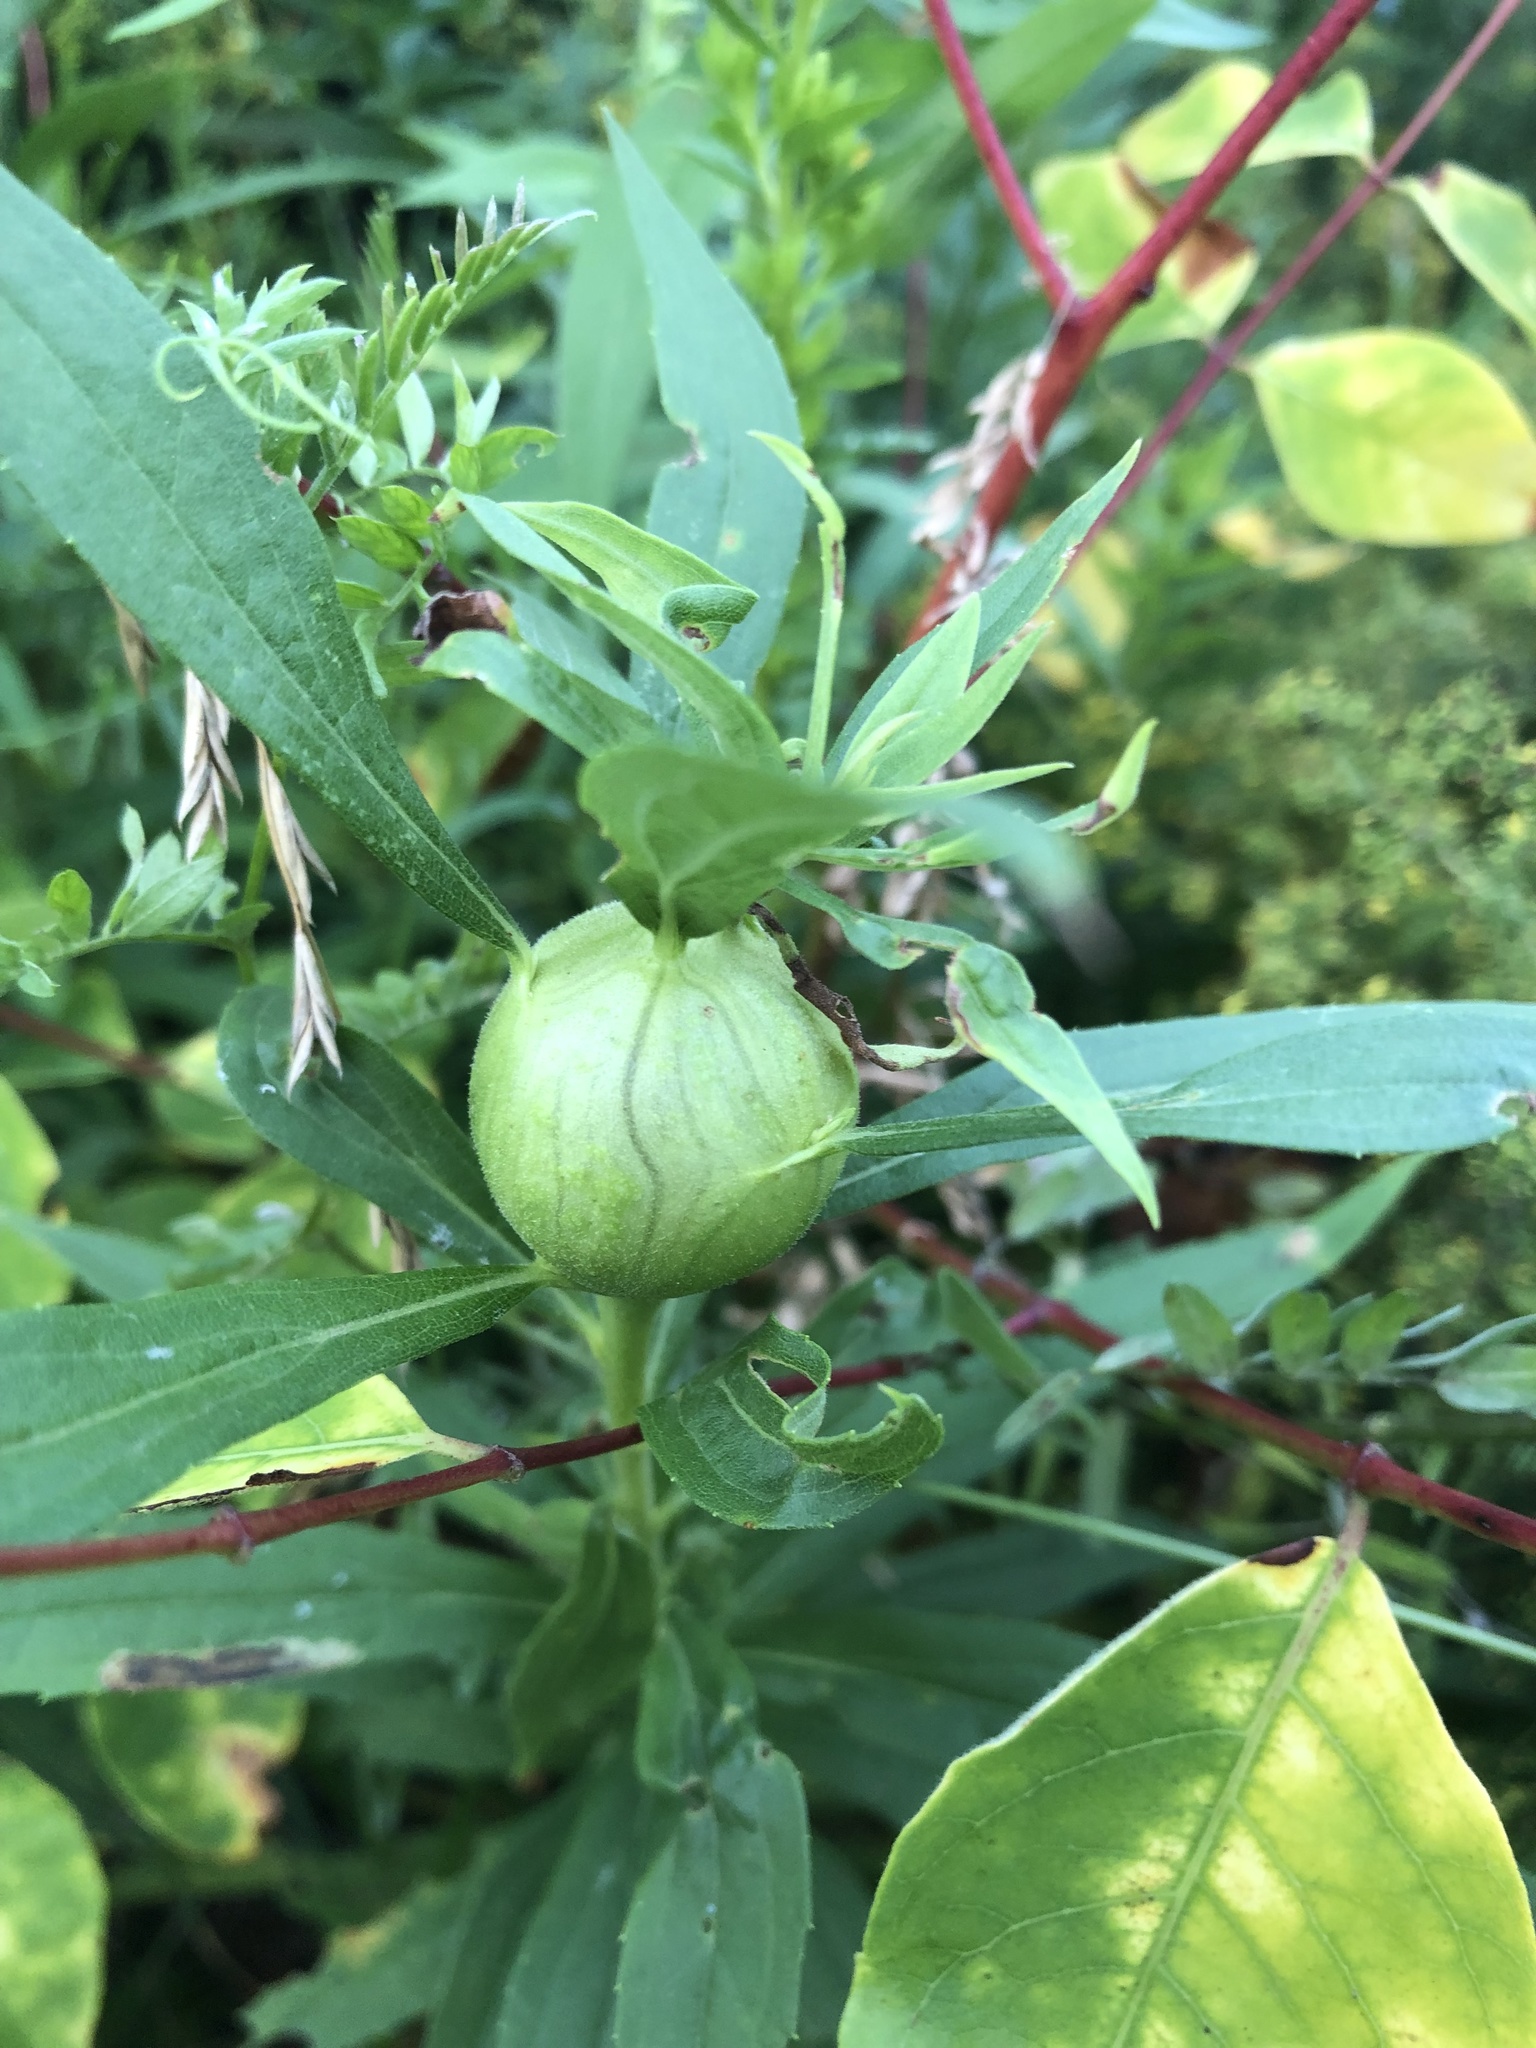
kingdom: Animalia
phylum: Arthropoda
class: Insecta
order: Diptera
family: Tephritidae
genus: Eurosta
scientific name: Eurosta solidaginis
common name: Goldenrod gall fly
